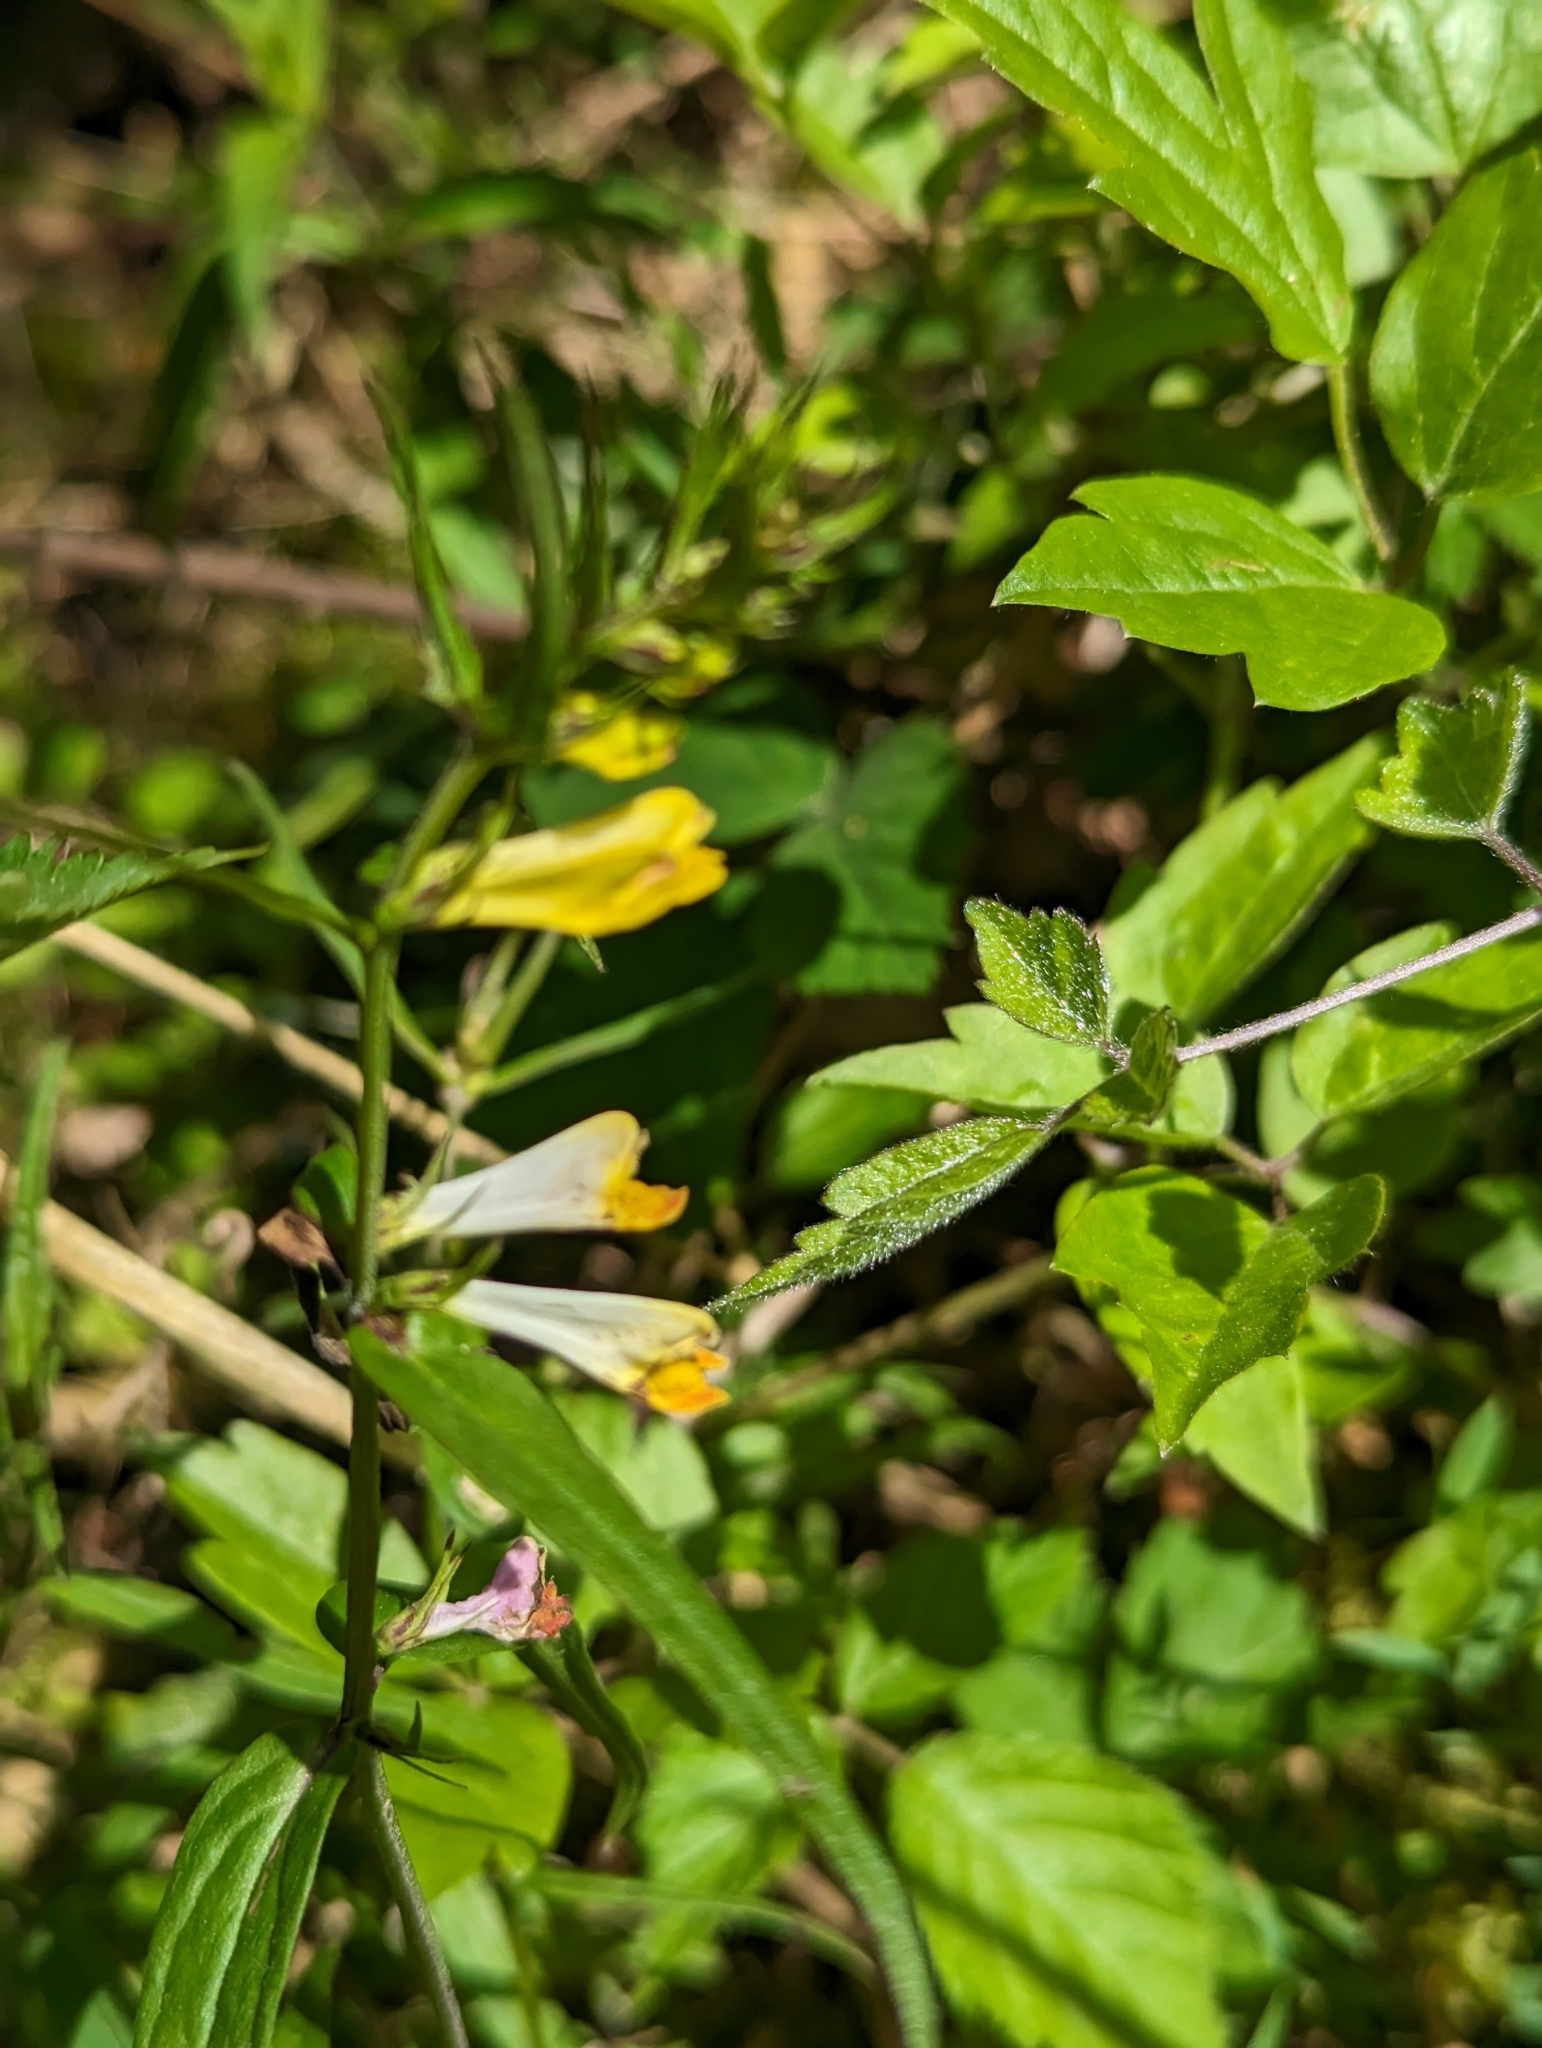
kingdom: Plantae
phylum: Tracheophyta
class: Magnoliopsida
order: Lamiales
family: Orobanchaceae
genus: Melampyrum
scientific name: Melampyrum pratense
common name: Common cow-wheat
